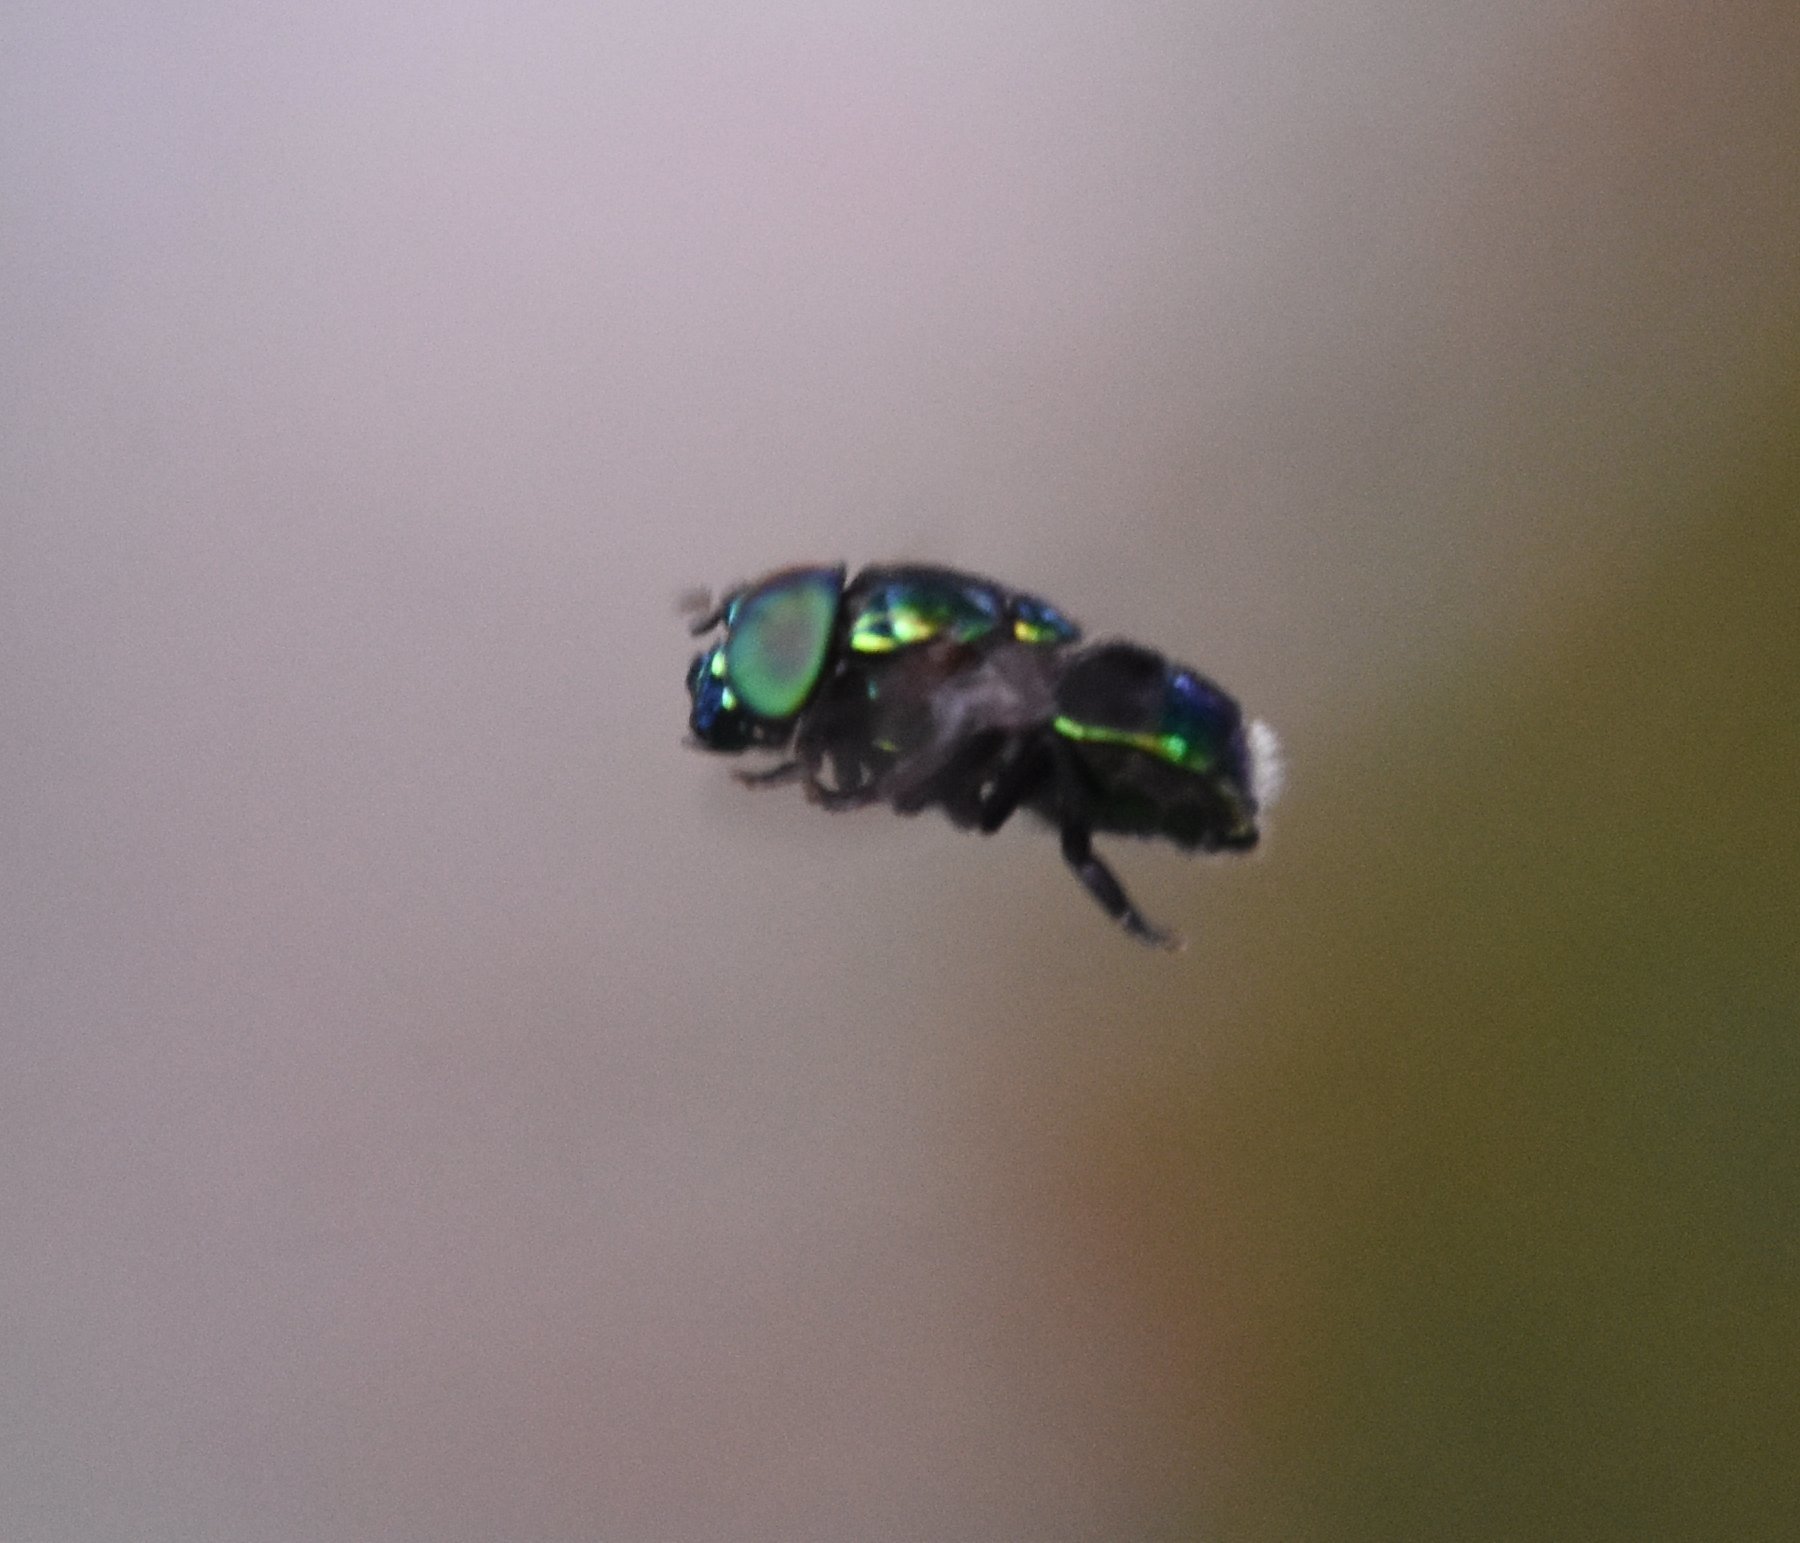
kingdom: Animalia
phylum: Arthropoda
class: Insecta
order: Diptera
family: Syrphidae
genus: Ornidia
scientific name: Ornidia obesa
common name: Syrphid fly
